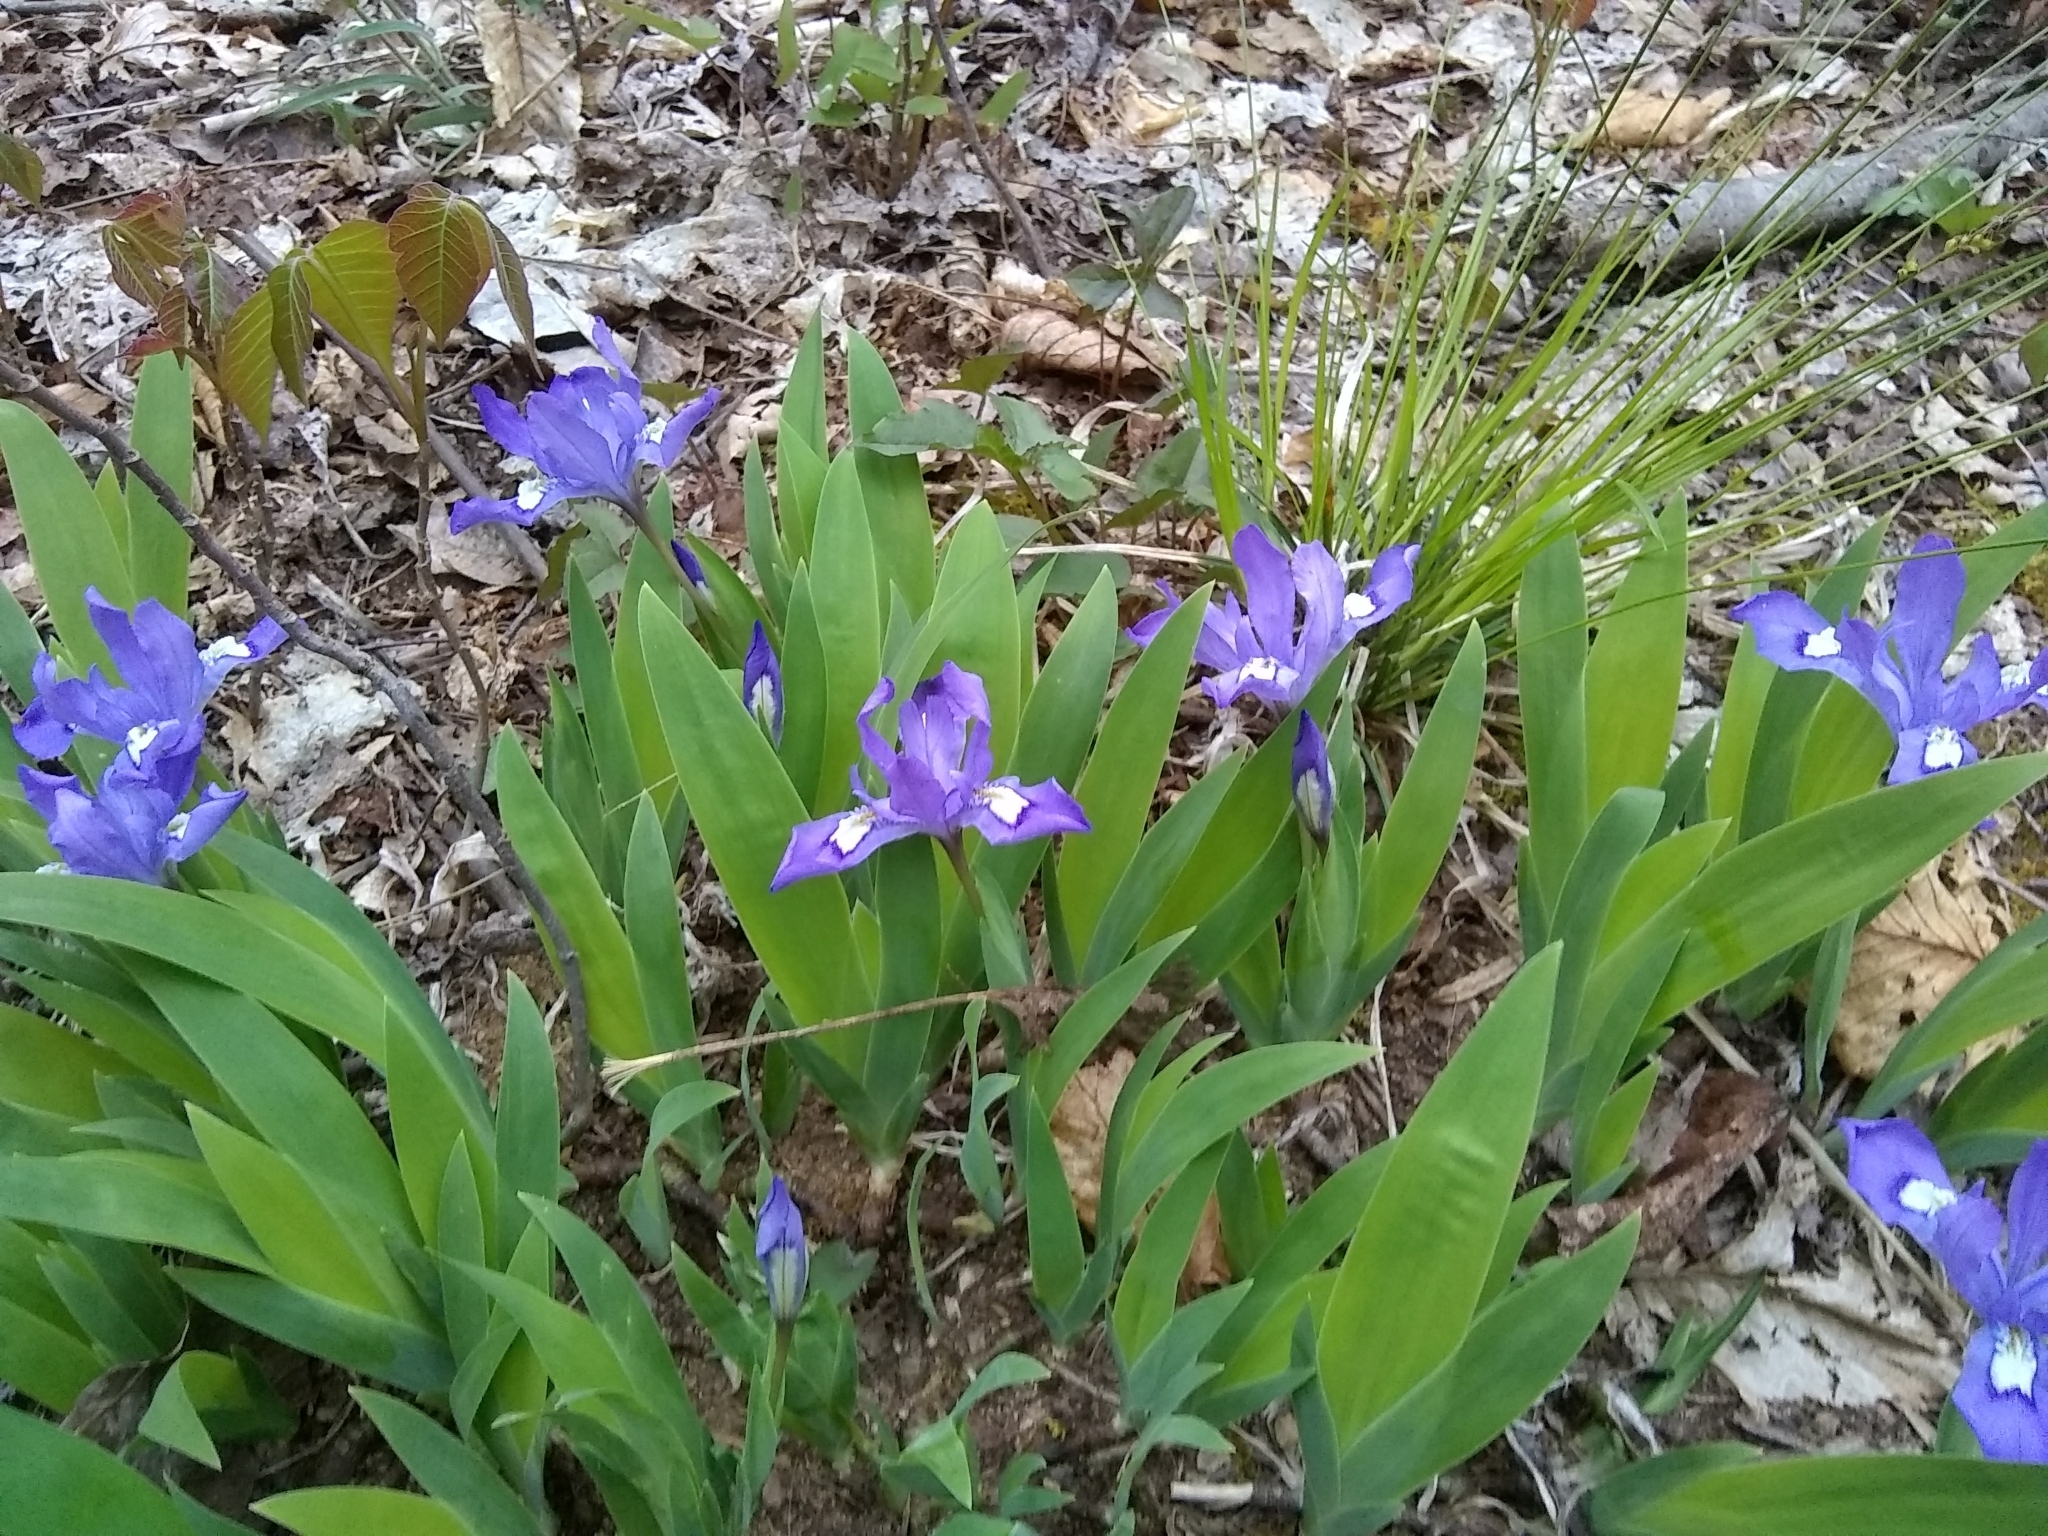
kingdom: Plantae
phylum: Tracheophyta
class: Liliopsida
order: Asparagales
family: Iridaceae
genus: Iris
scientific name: Iris cristata
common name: Crested iris
